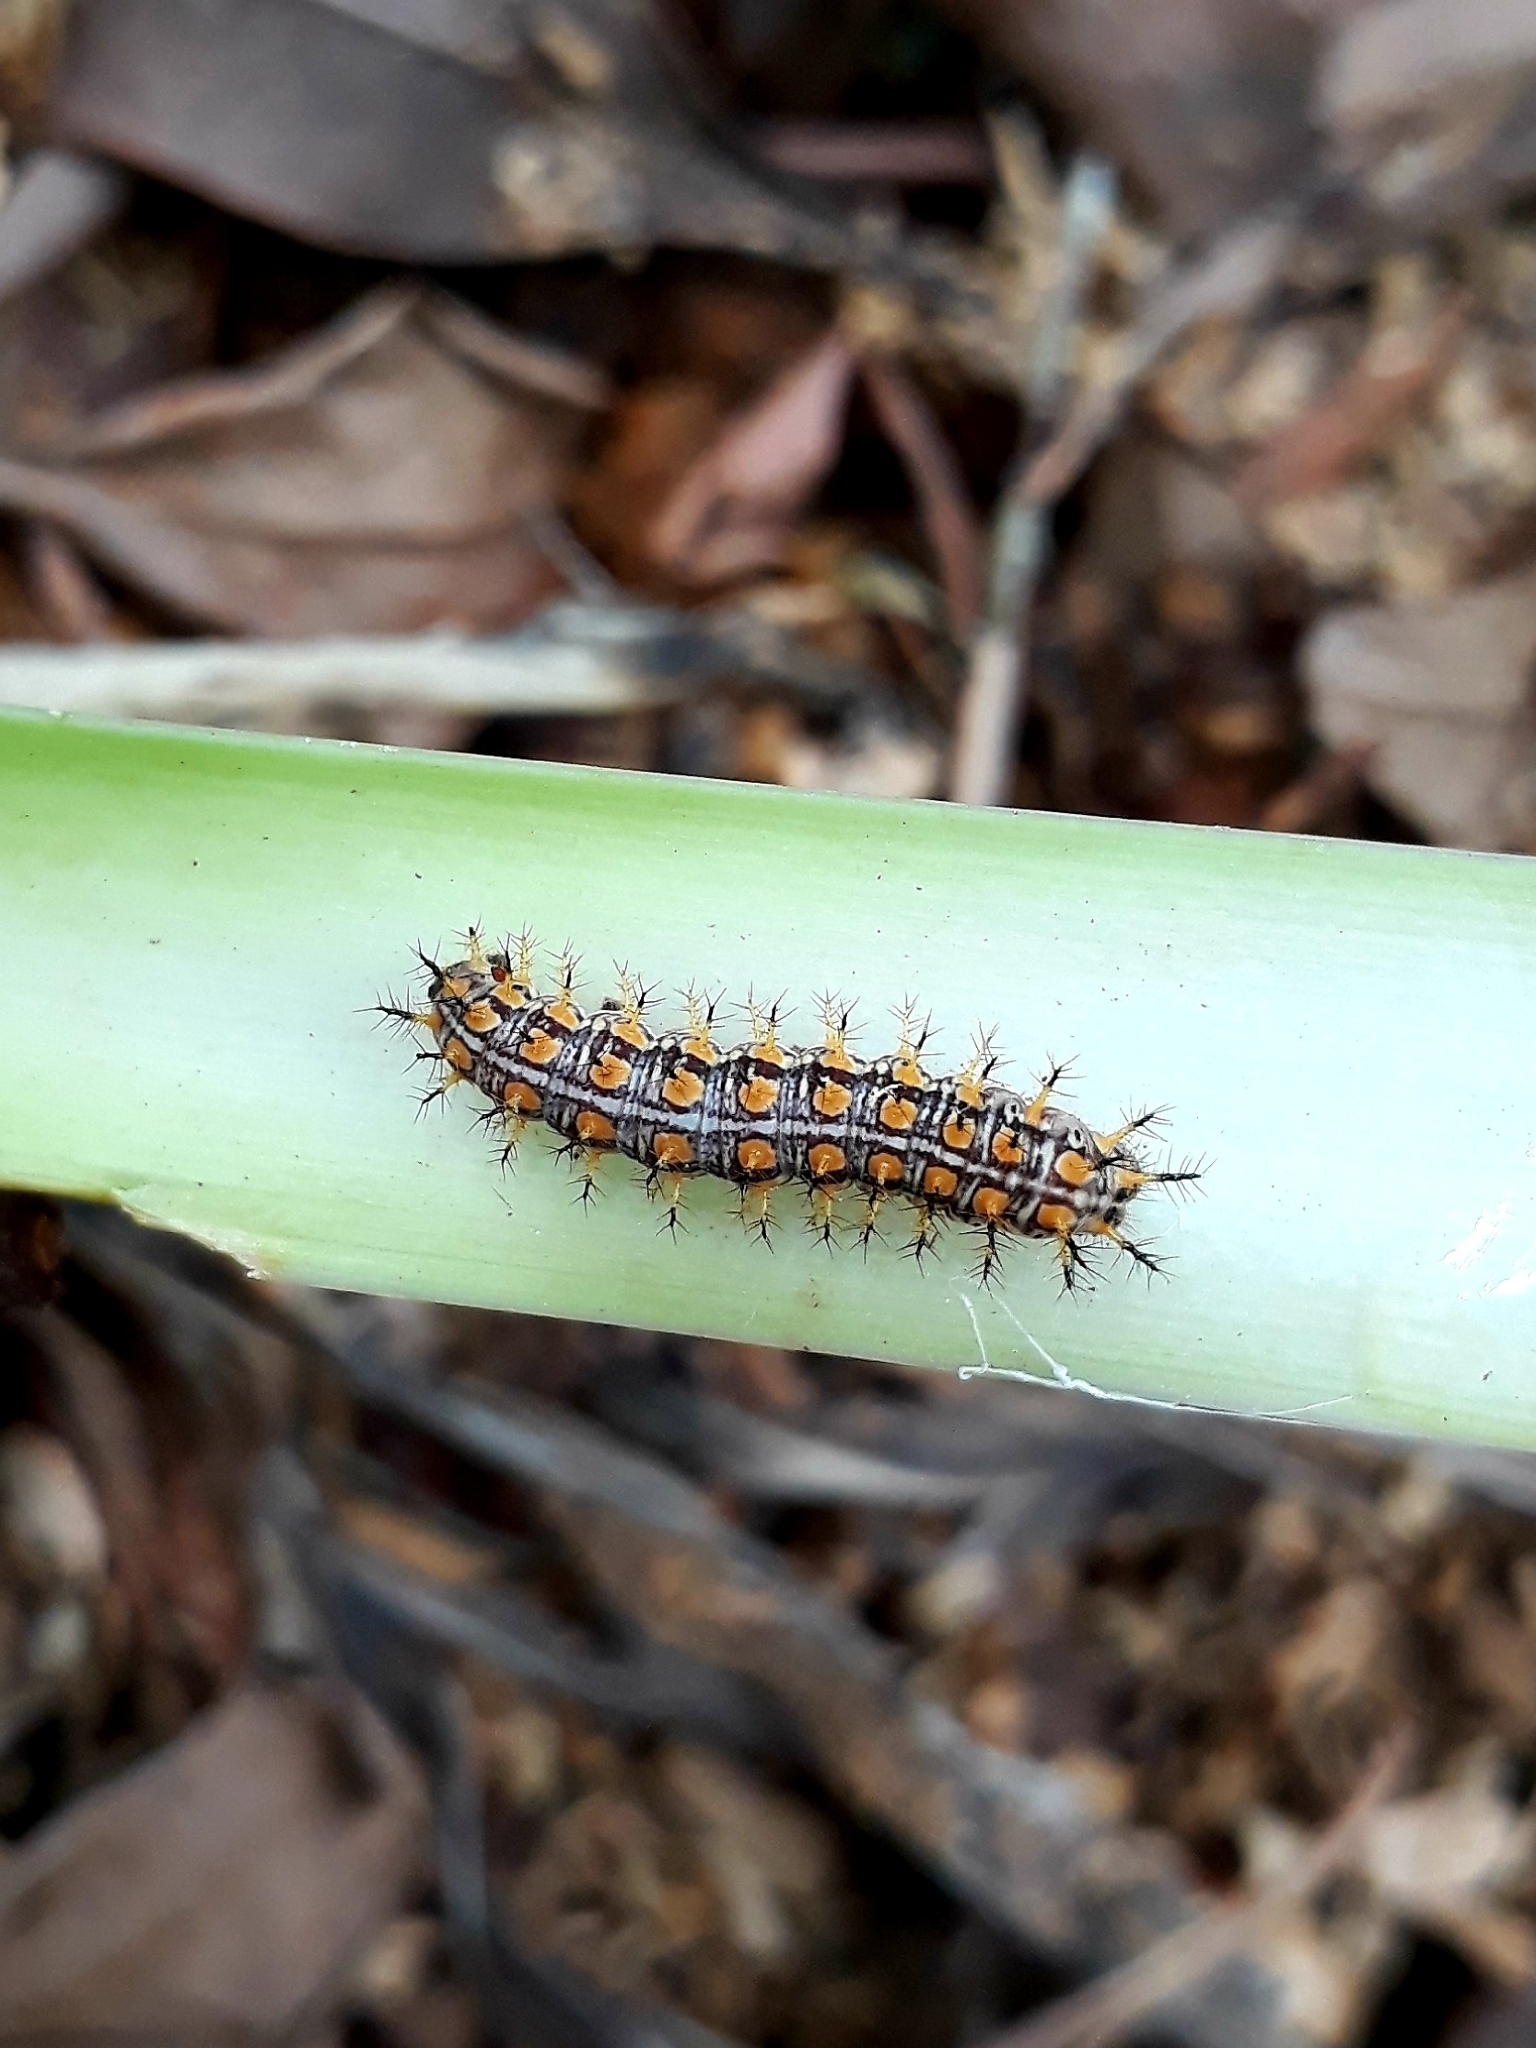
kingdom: Animalia
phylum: Arthropoda
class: Insecta
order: Lepidoptera
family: Nymphalidae
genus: Acraea
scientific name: Acraea rahira
